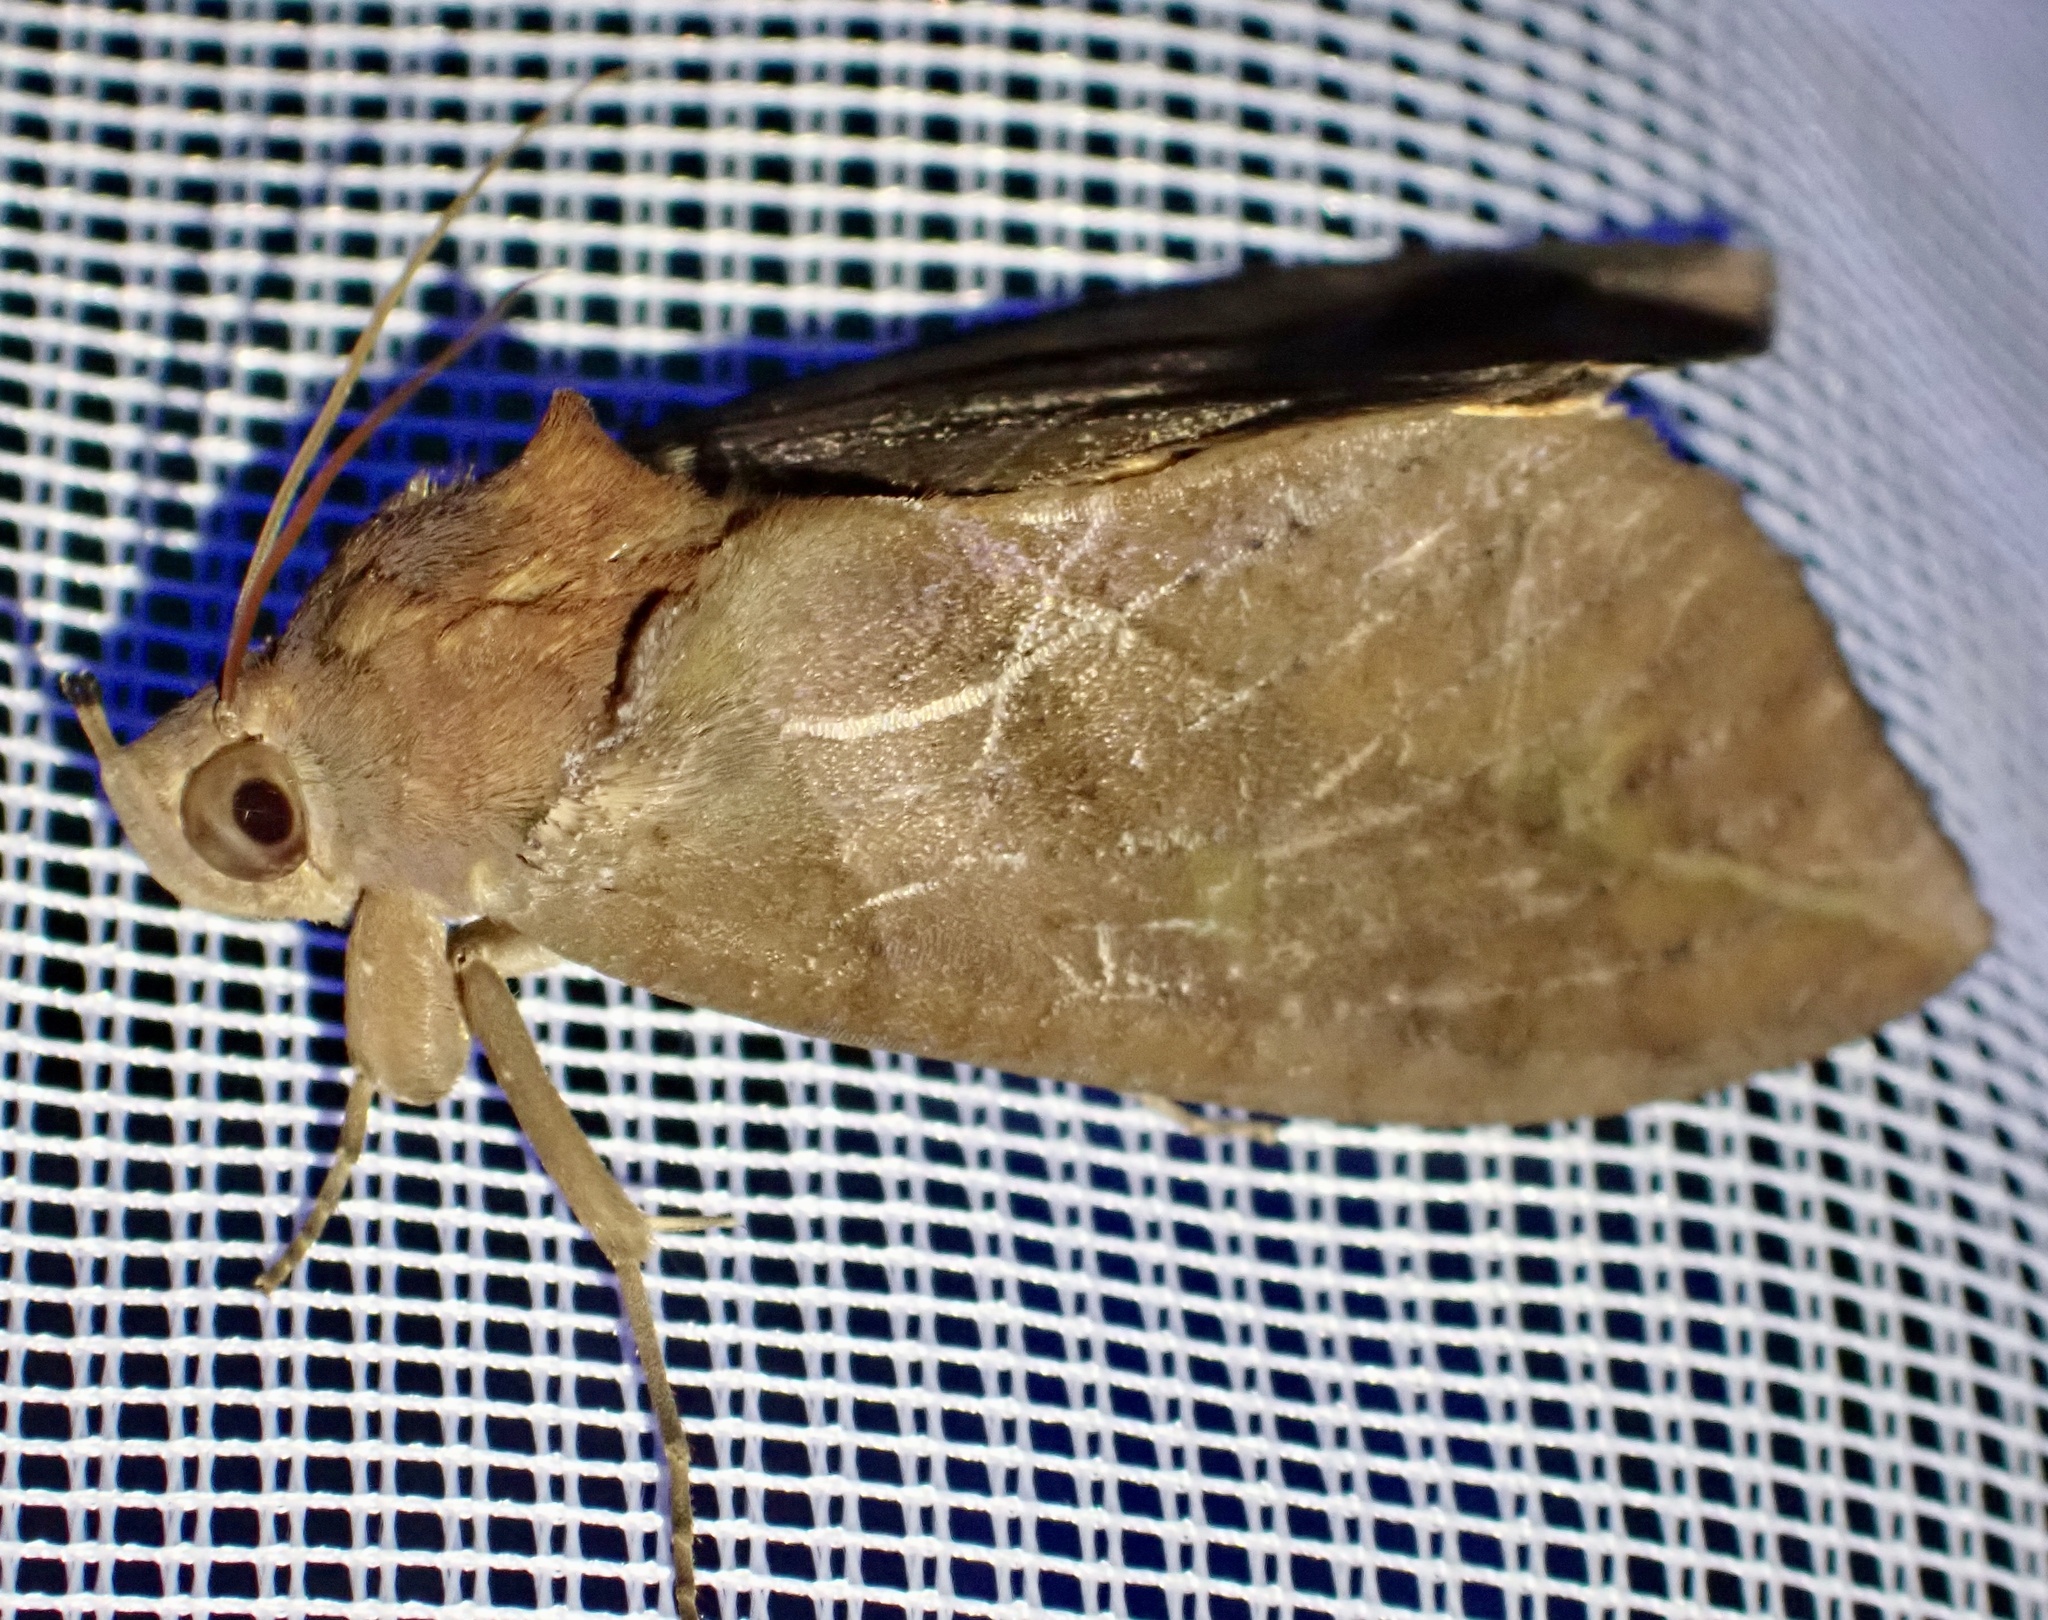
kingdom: Animalia
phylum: Arthropoda
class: Insecta
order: Lepidoptera
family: Erebidae
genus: Eudocima
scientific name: Eudocima phalonia
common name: Wasp
